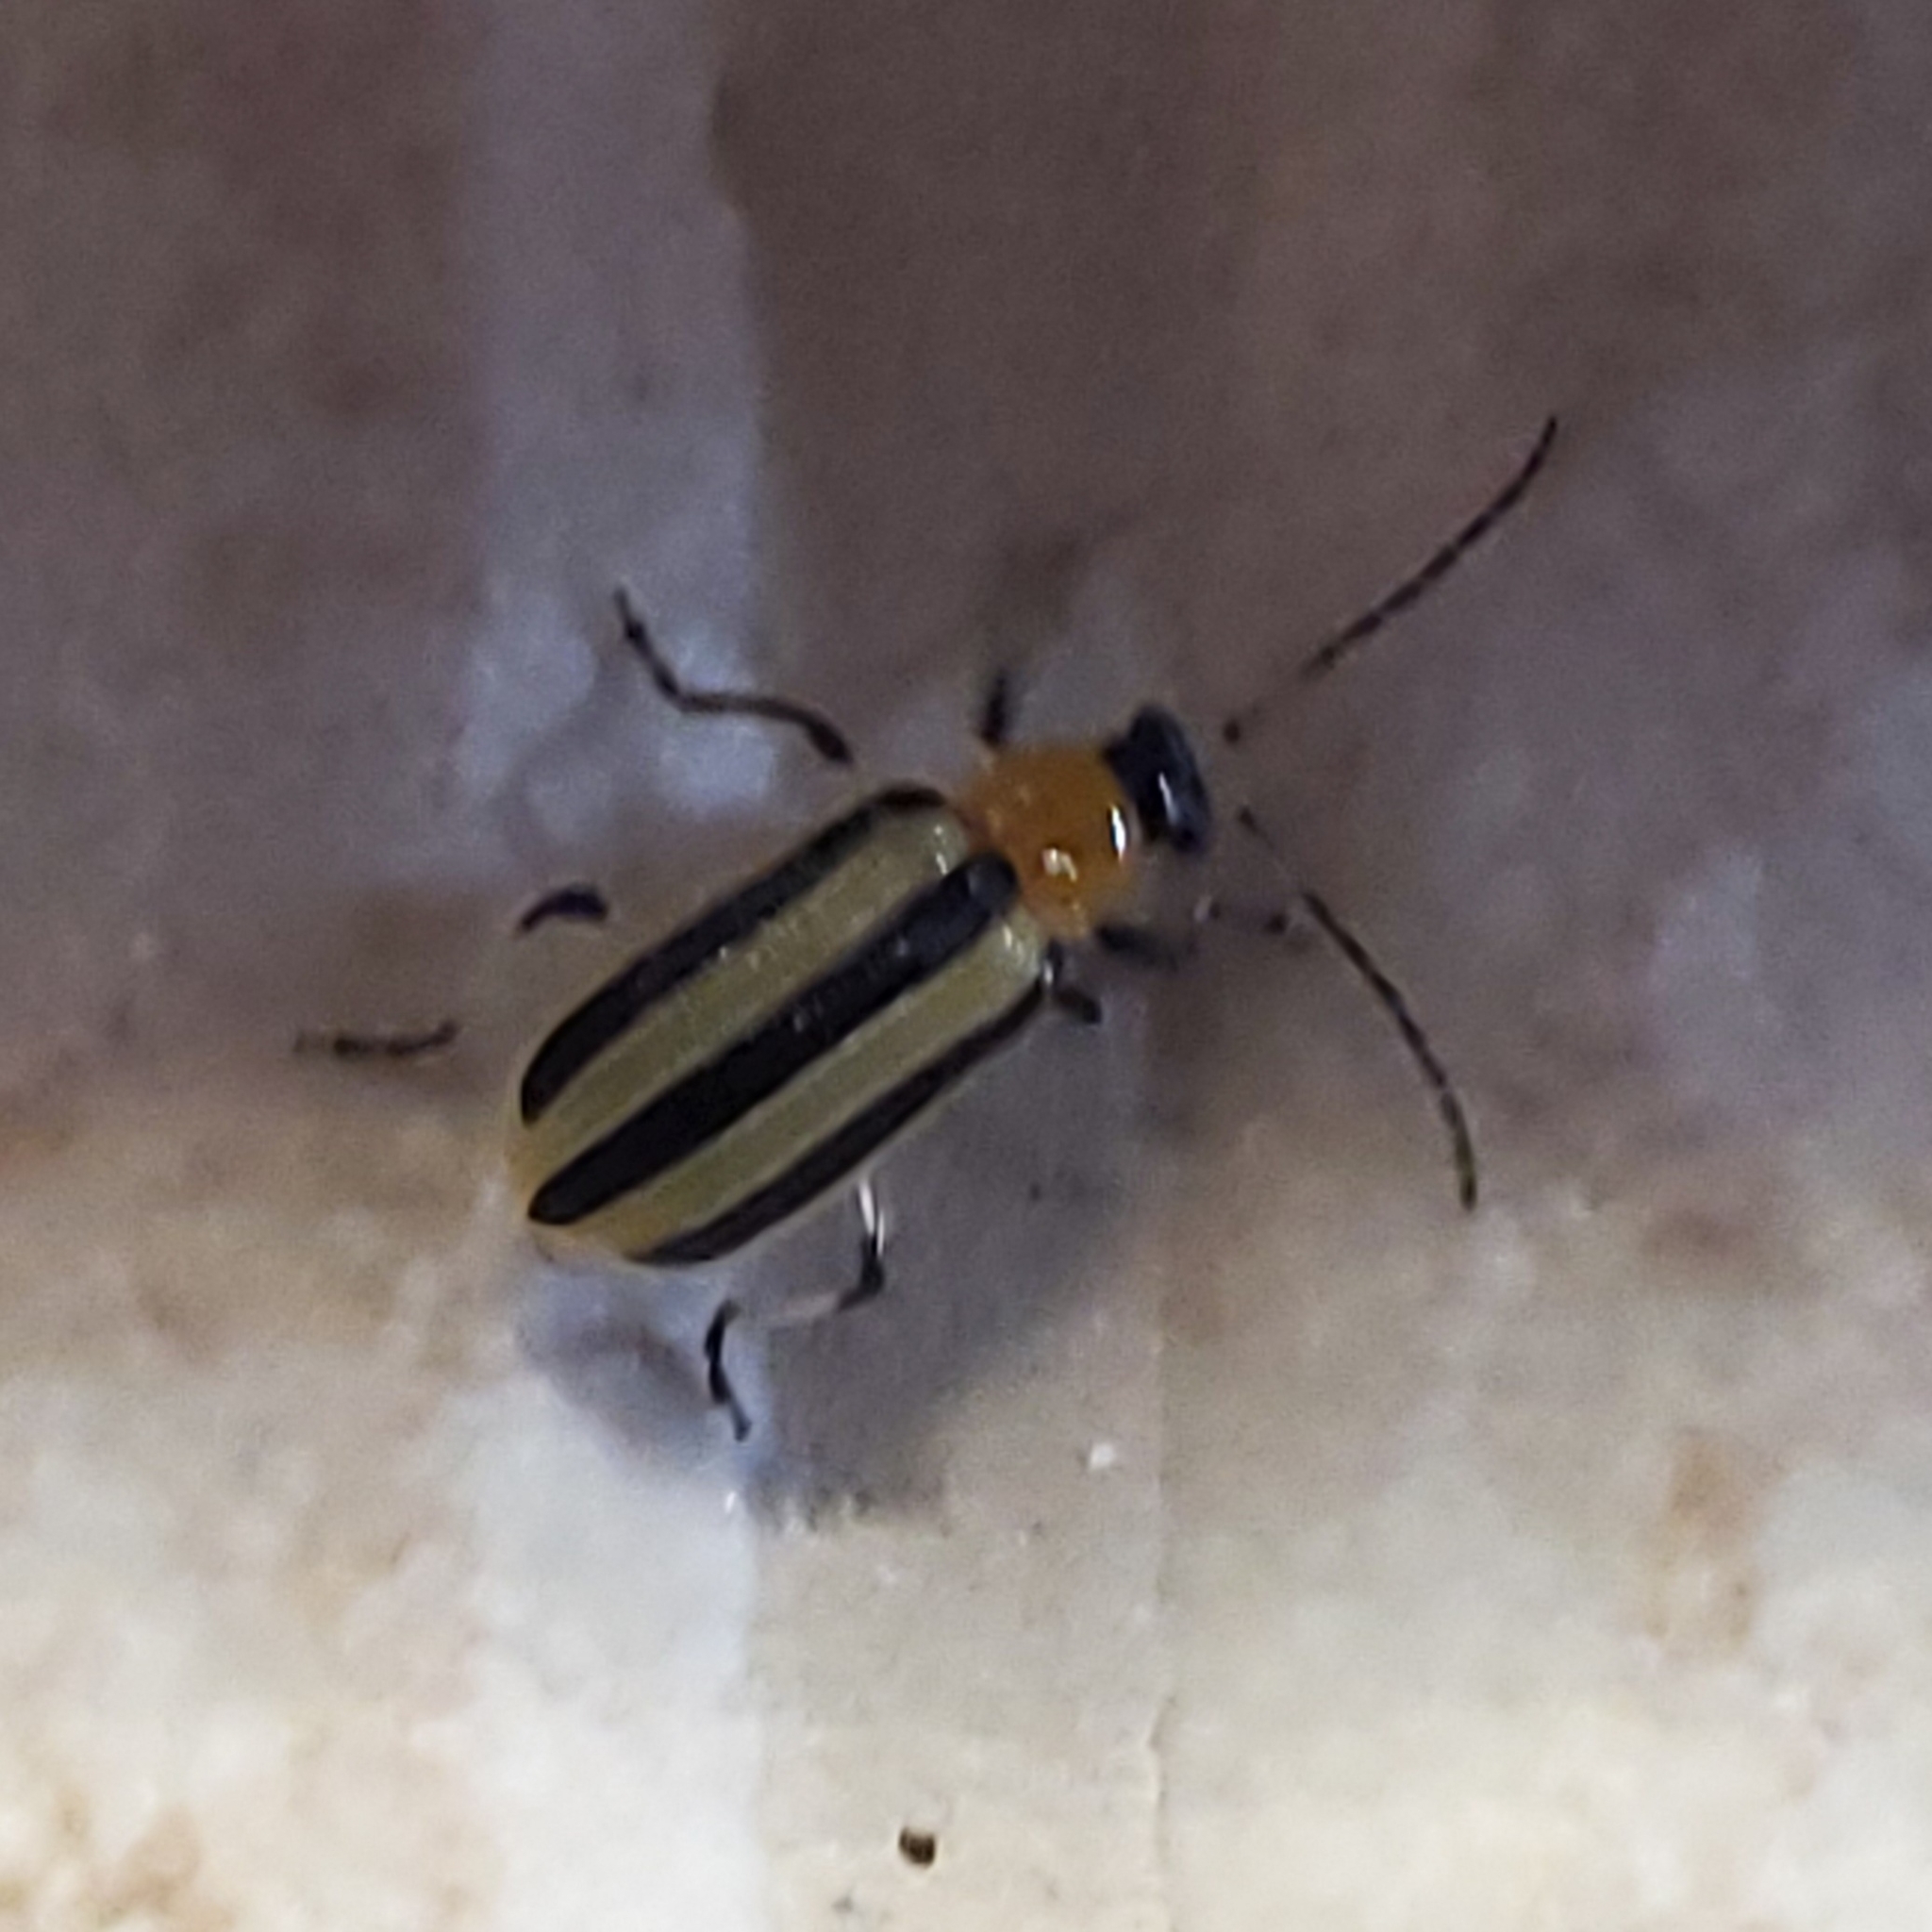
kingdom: Animalia
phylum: Arthropoda
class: Insecta
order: Coleoptera
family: Chrysomelidae
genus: Acalymma
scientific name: Acalymma vittatum
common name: Striped cucumber beetle
